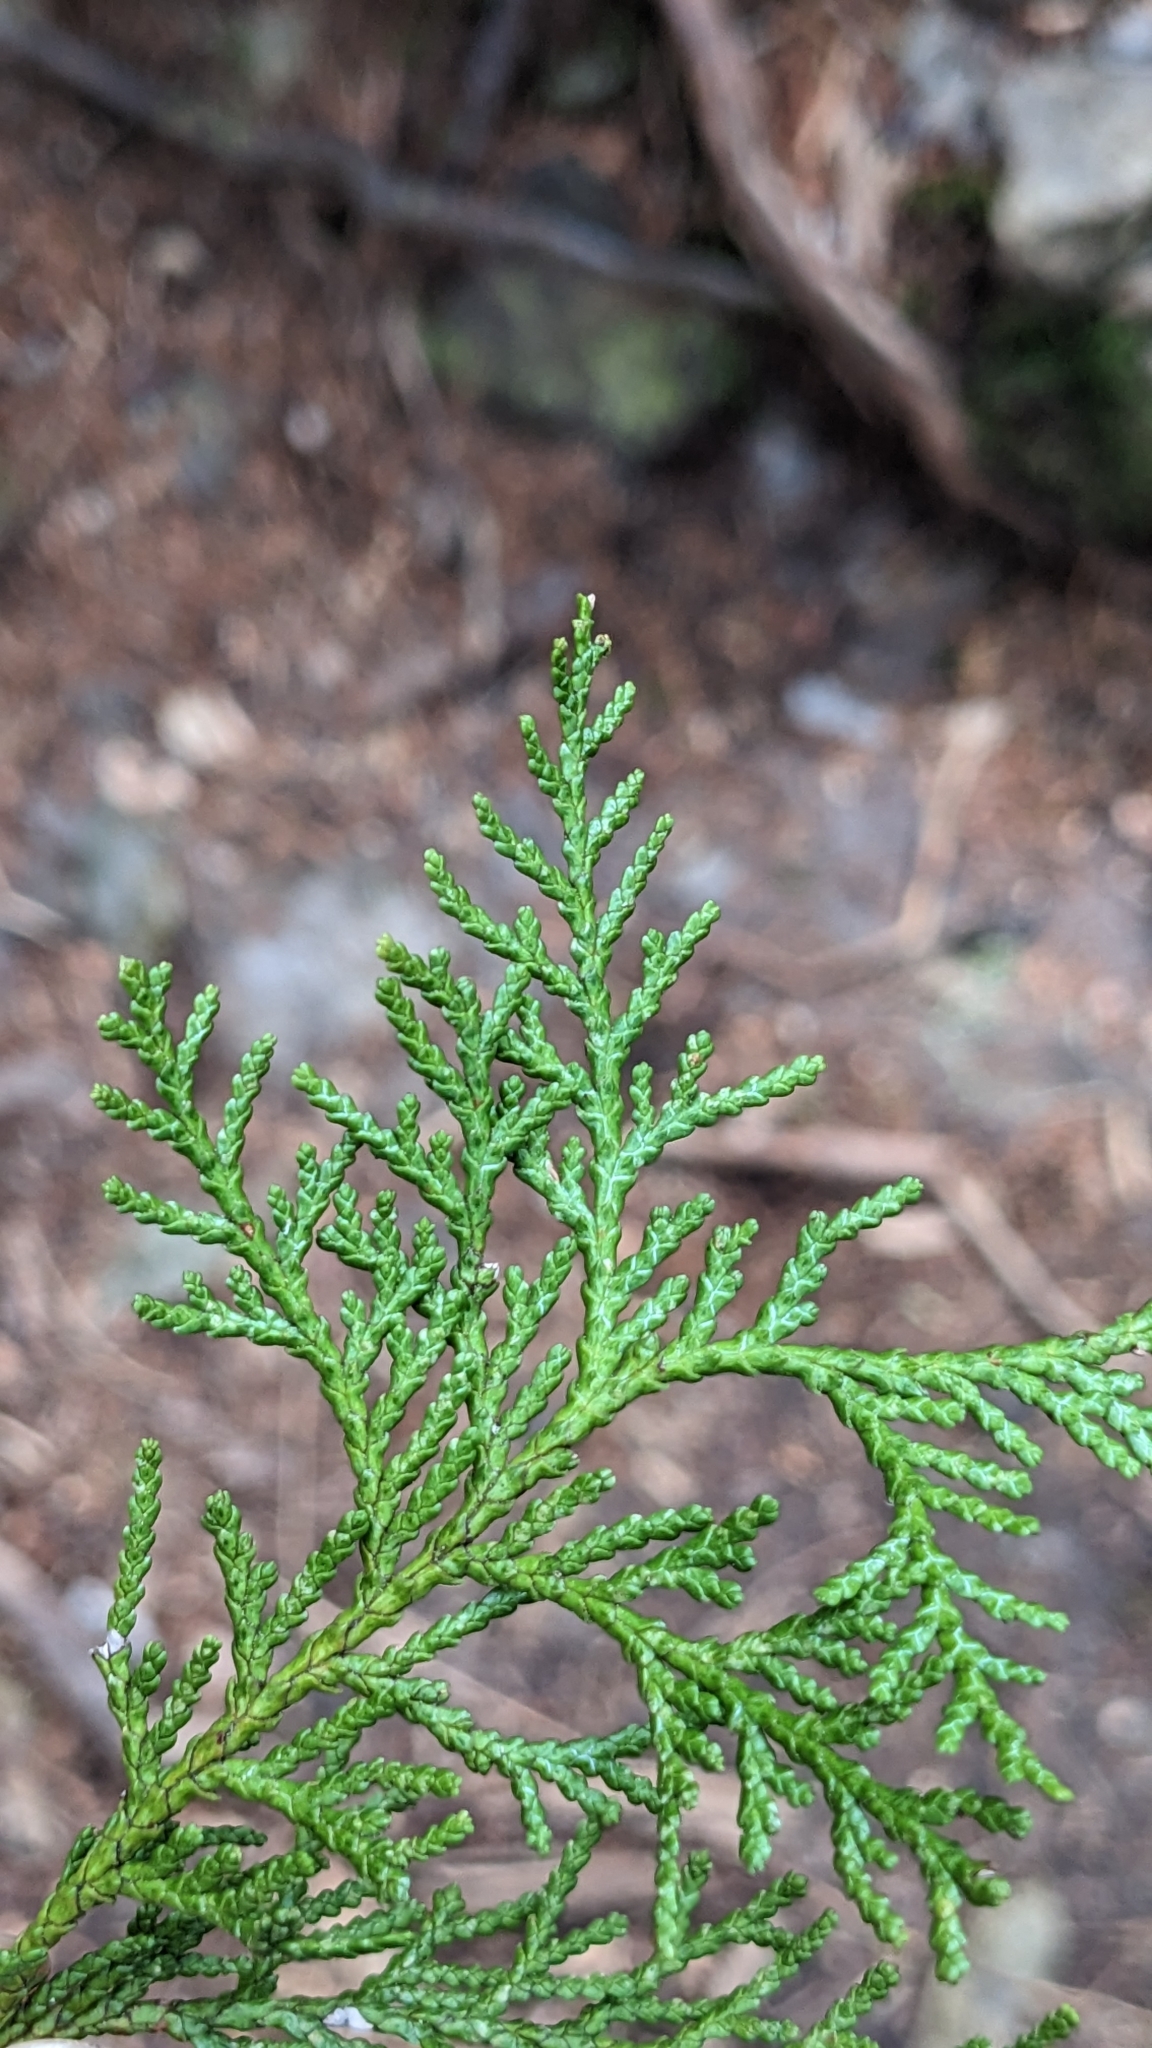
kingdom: Plantae
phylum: Tracheophyta
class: Pinopsida
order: Pinales
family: Cupressaceae
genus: Chamaecyparis
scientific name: Chamaecyparis obtusa
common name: Hinoki false cypress
